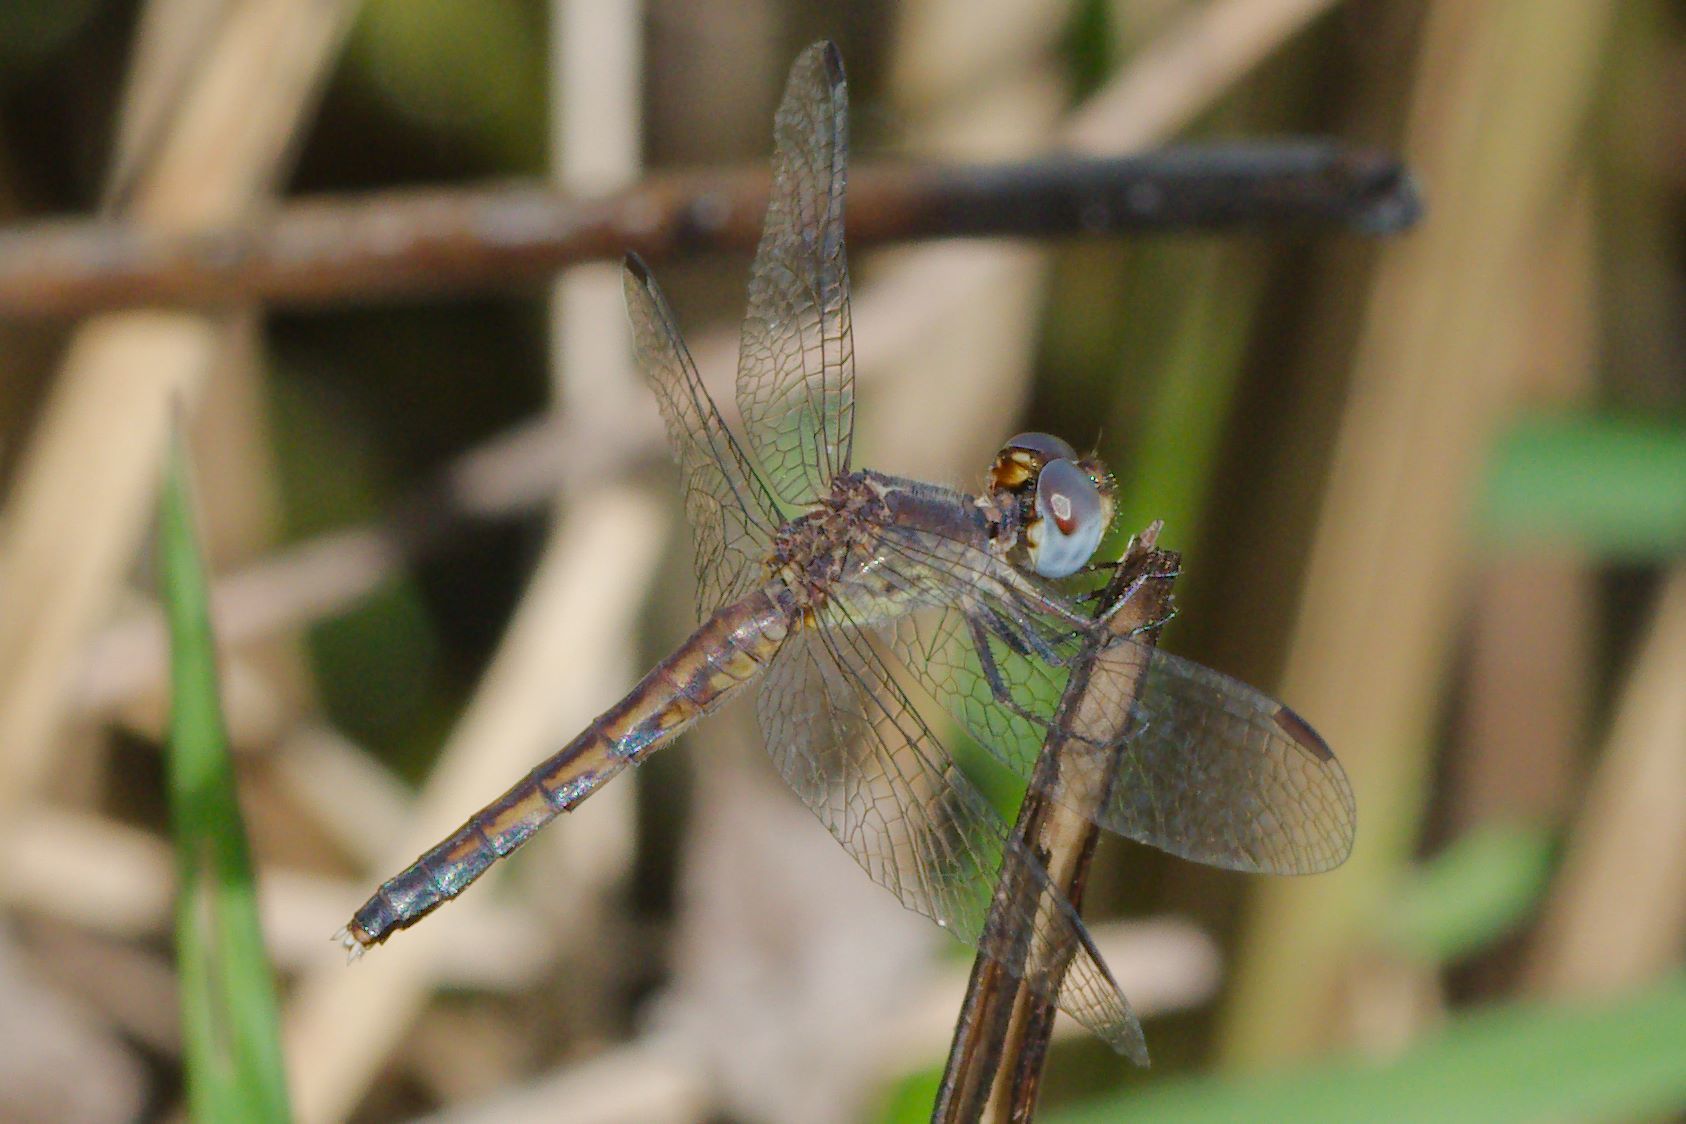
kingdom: Animalia
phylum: Arthropoda
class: Insecta
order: Odonata
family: Libellulidae
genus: Erythrodiplax
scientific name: Erythrodiplax minuscula
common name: Little blue dragonlet
